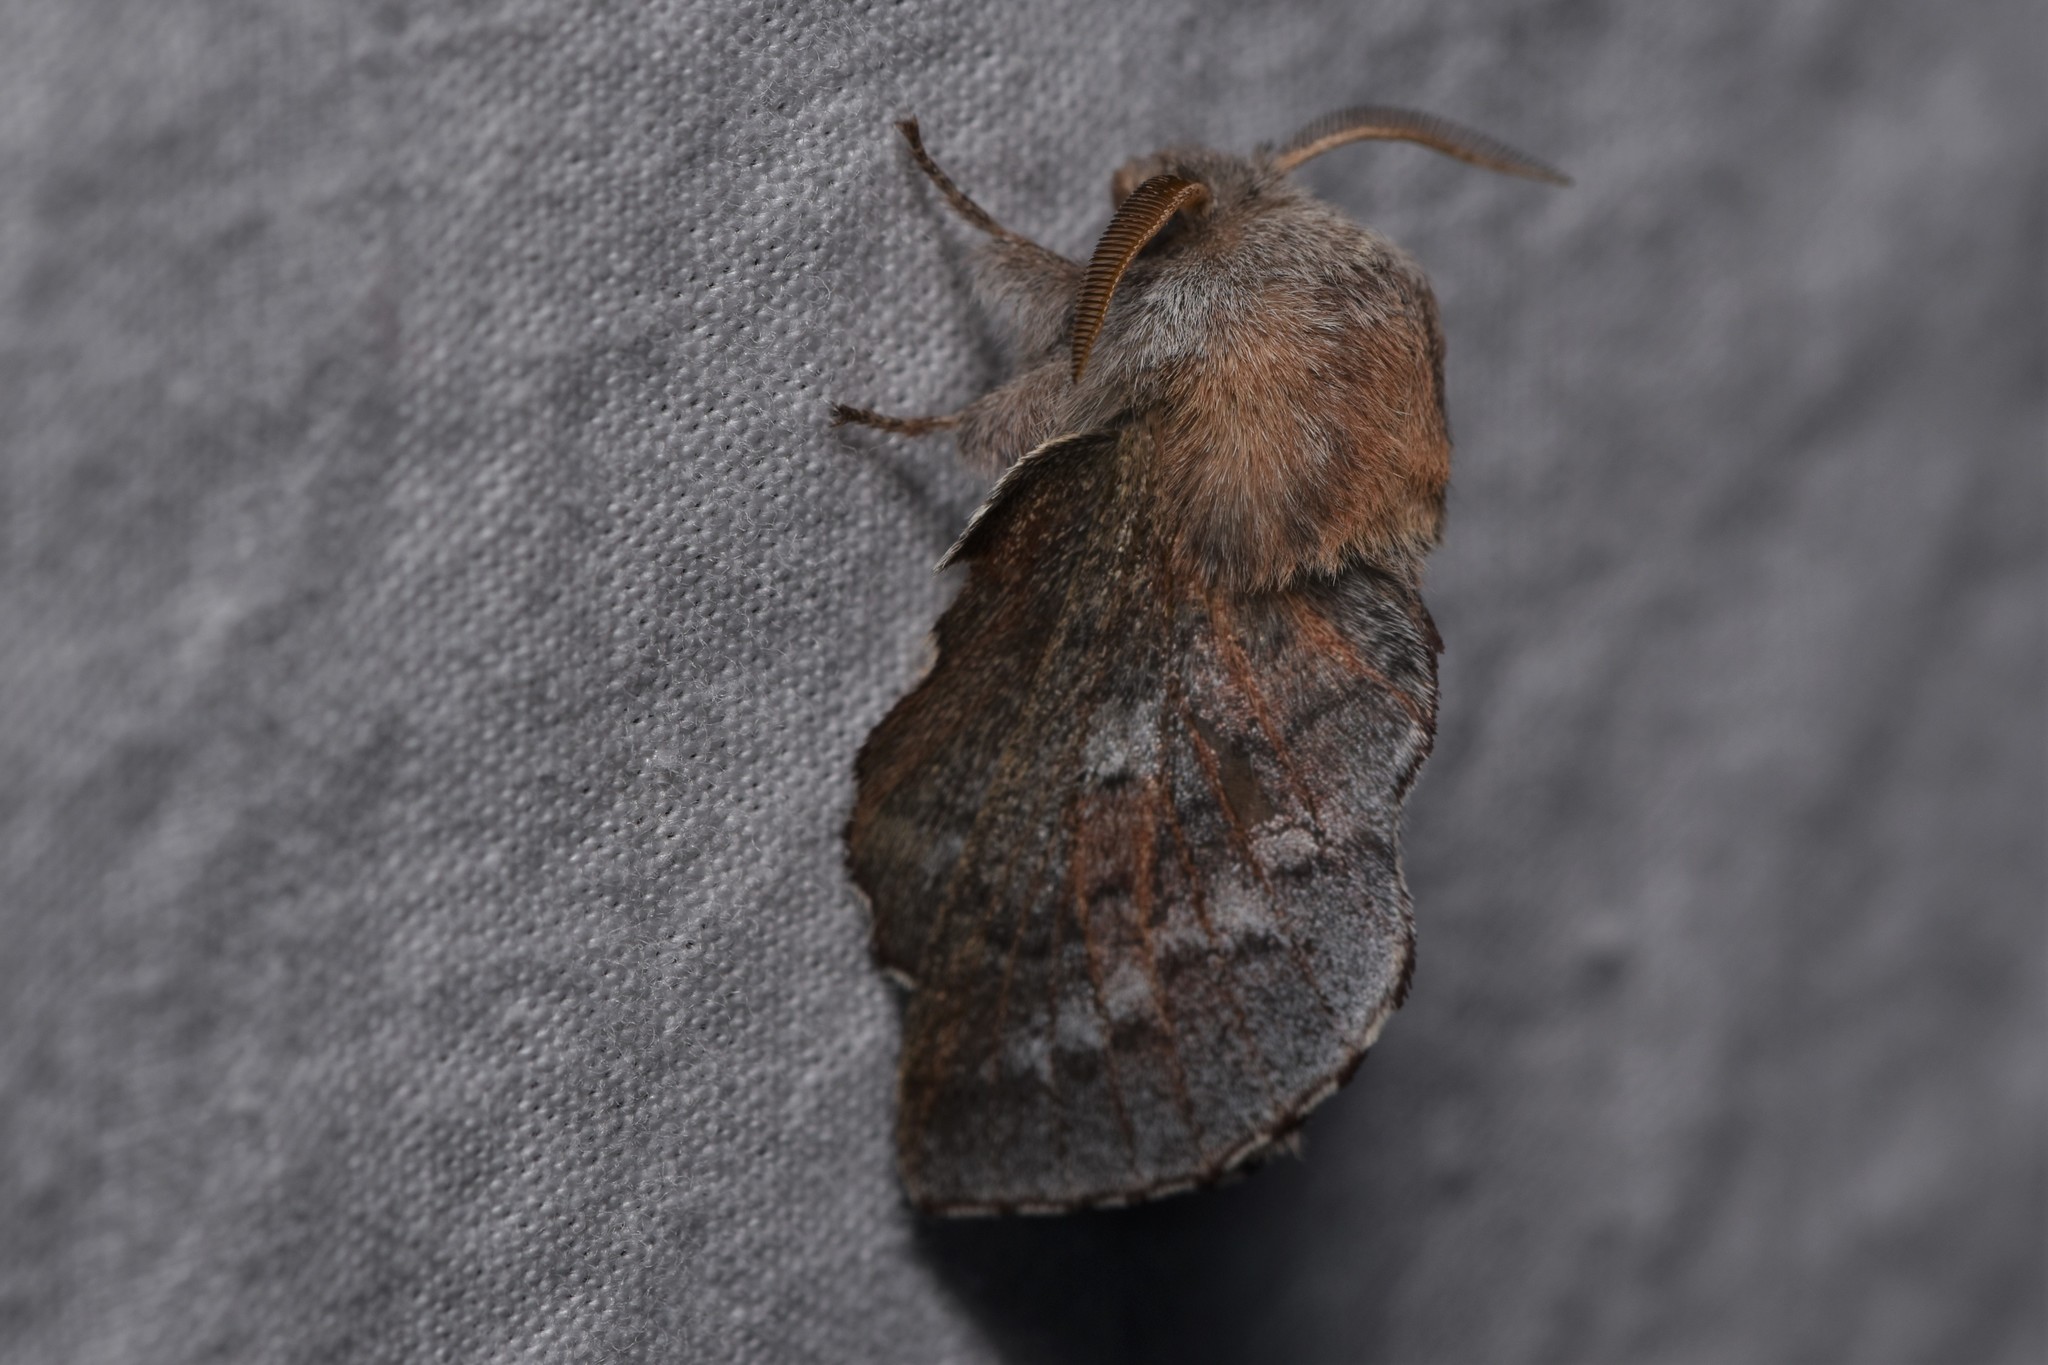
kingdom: Animalia
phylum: Arthropoda
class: Insecta
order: Lepidoptera
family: Lasiocampidae
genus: Phyllodesma
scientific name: Phyllodesma americana
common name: American lappet moth
